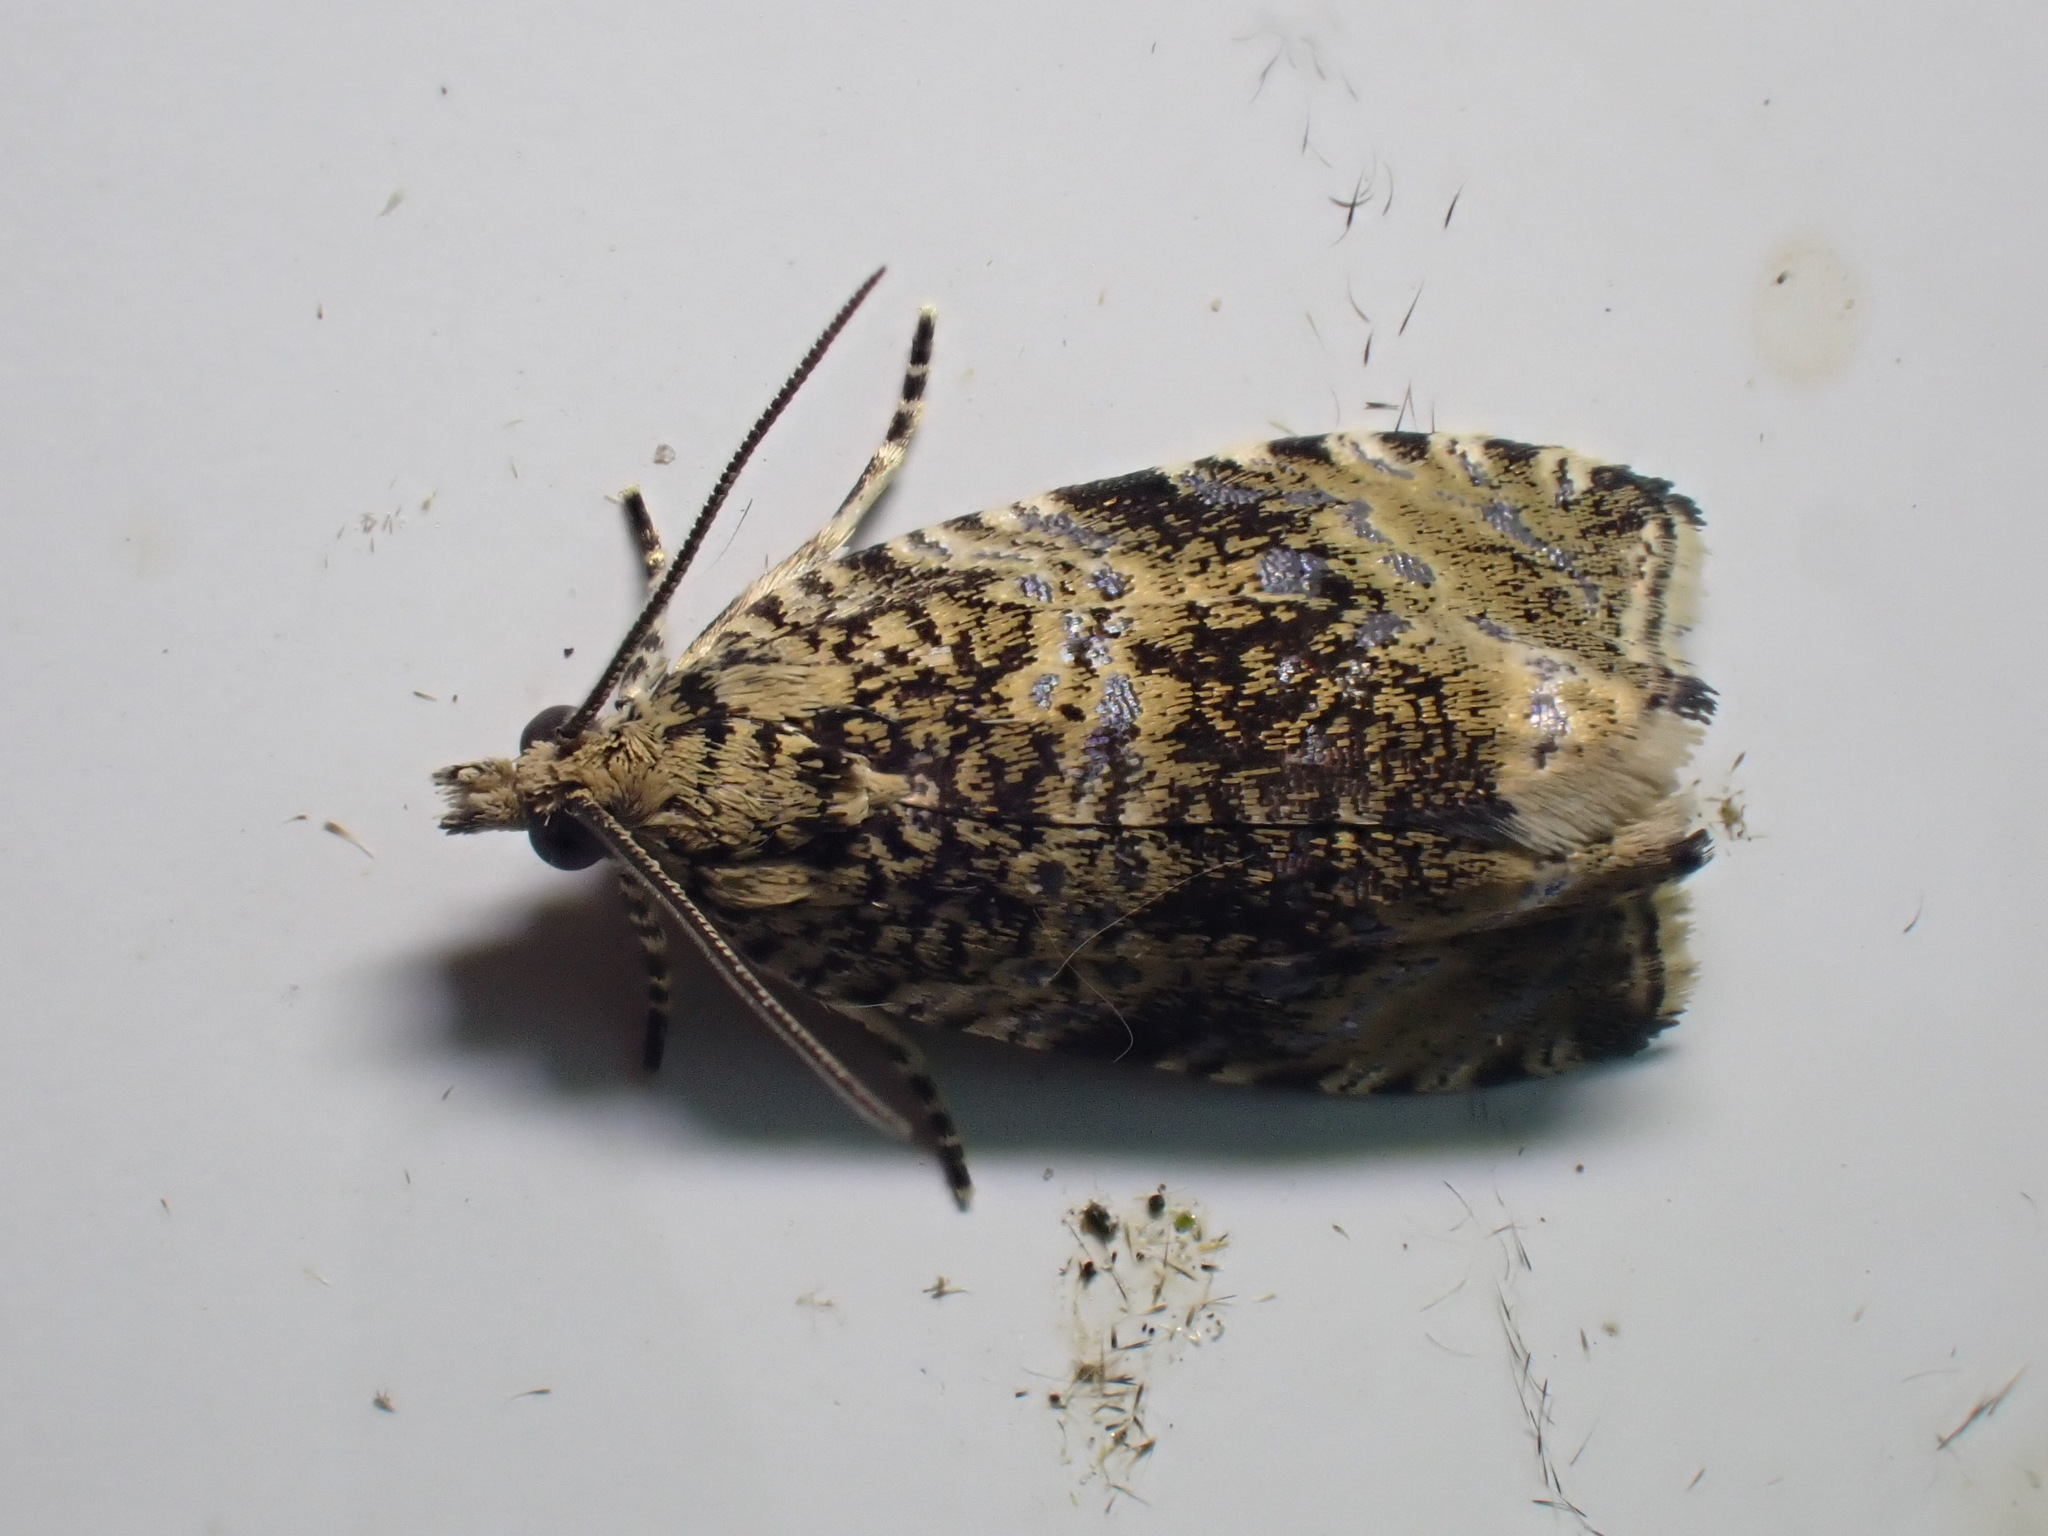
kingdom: Animalia
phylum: Arthropoda
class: Insecta
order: Lepidoptera
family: Tortricidae
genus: Syricoris
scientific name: Syricoris lacunana
